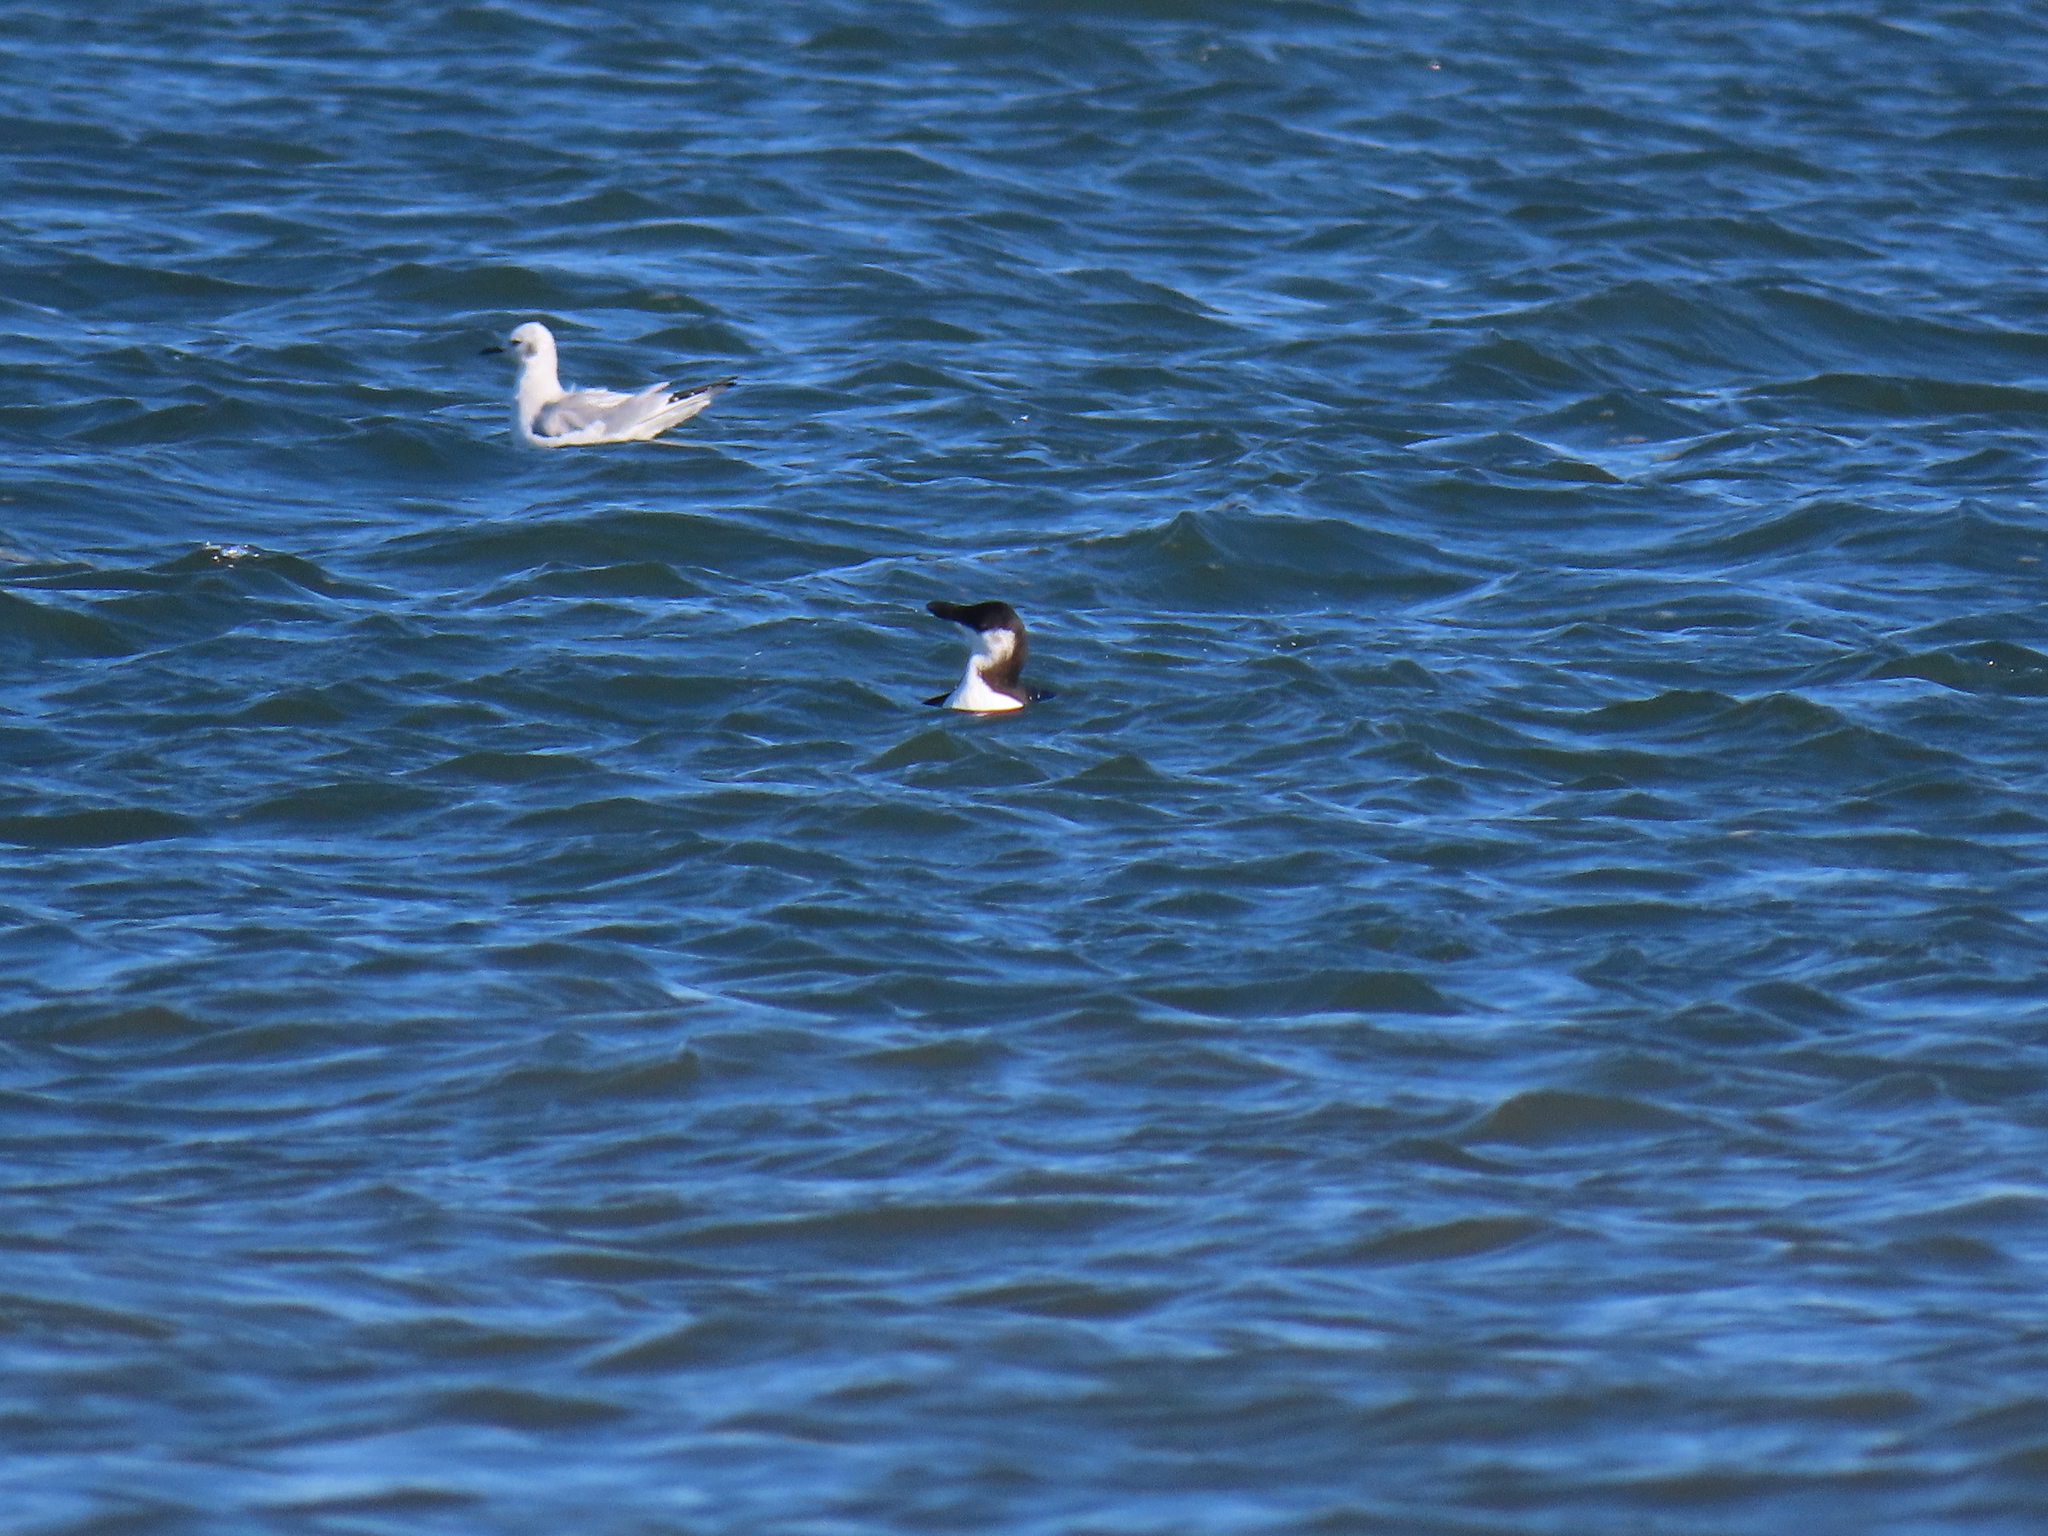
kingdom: Animalia
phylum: Chordata
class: Aves
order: Charadriiformes
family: Alcidae
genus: Alca
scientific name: Alca torda
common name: Razorbill
